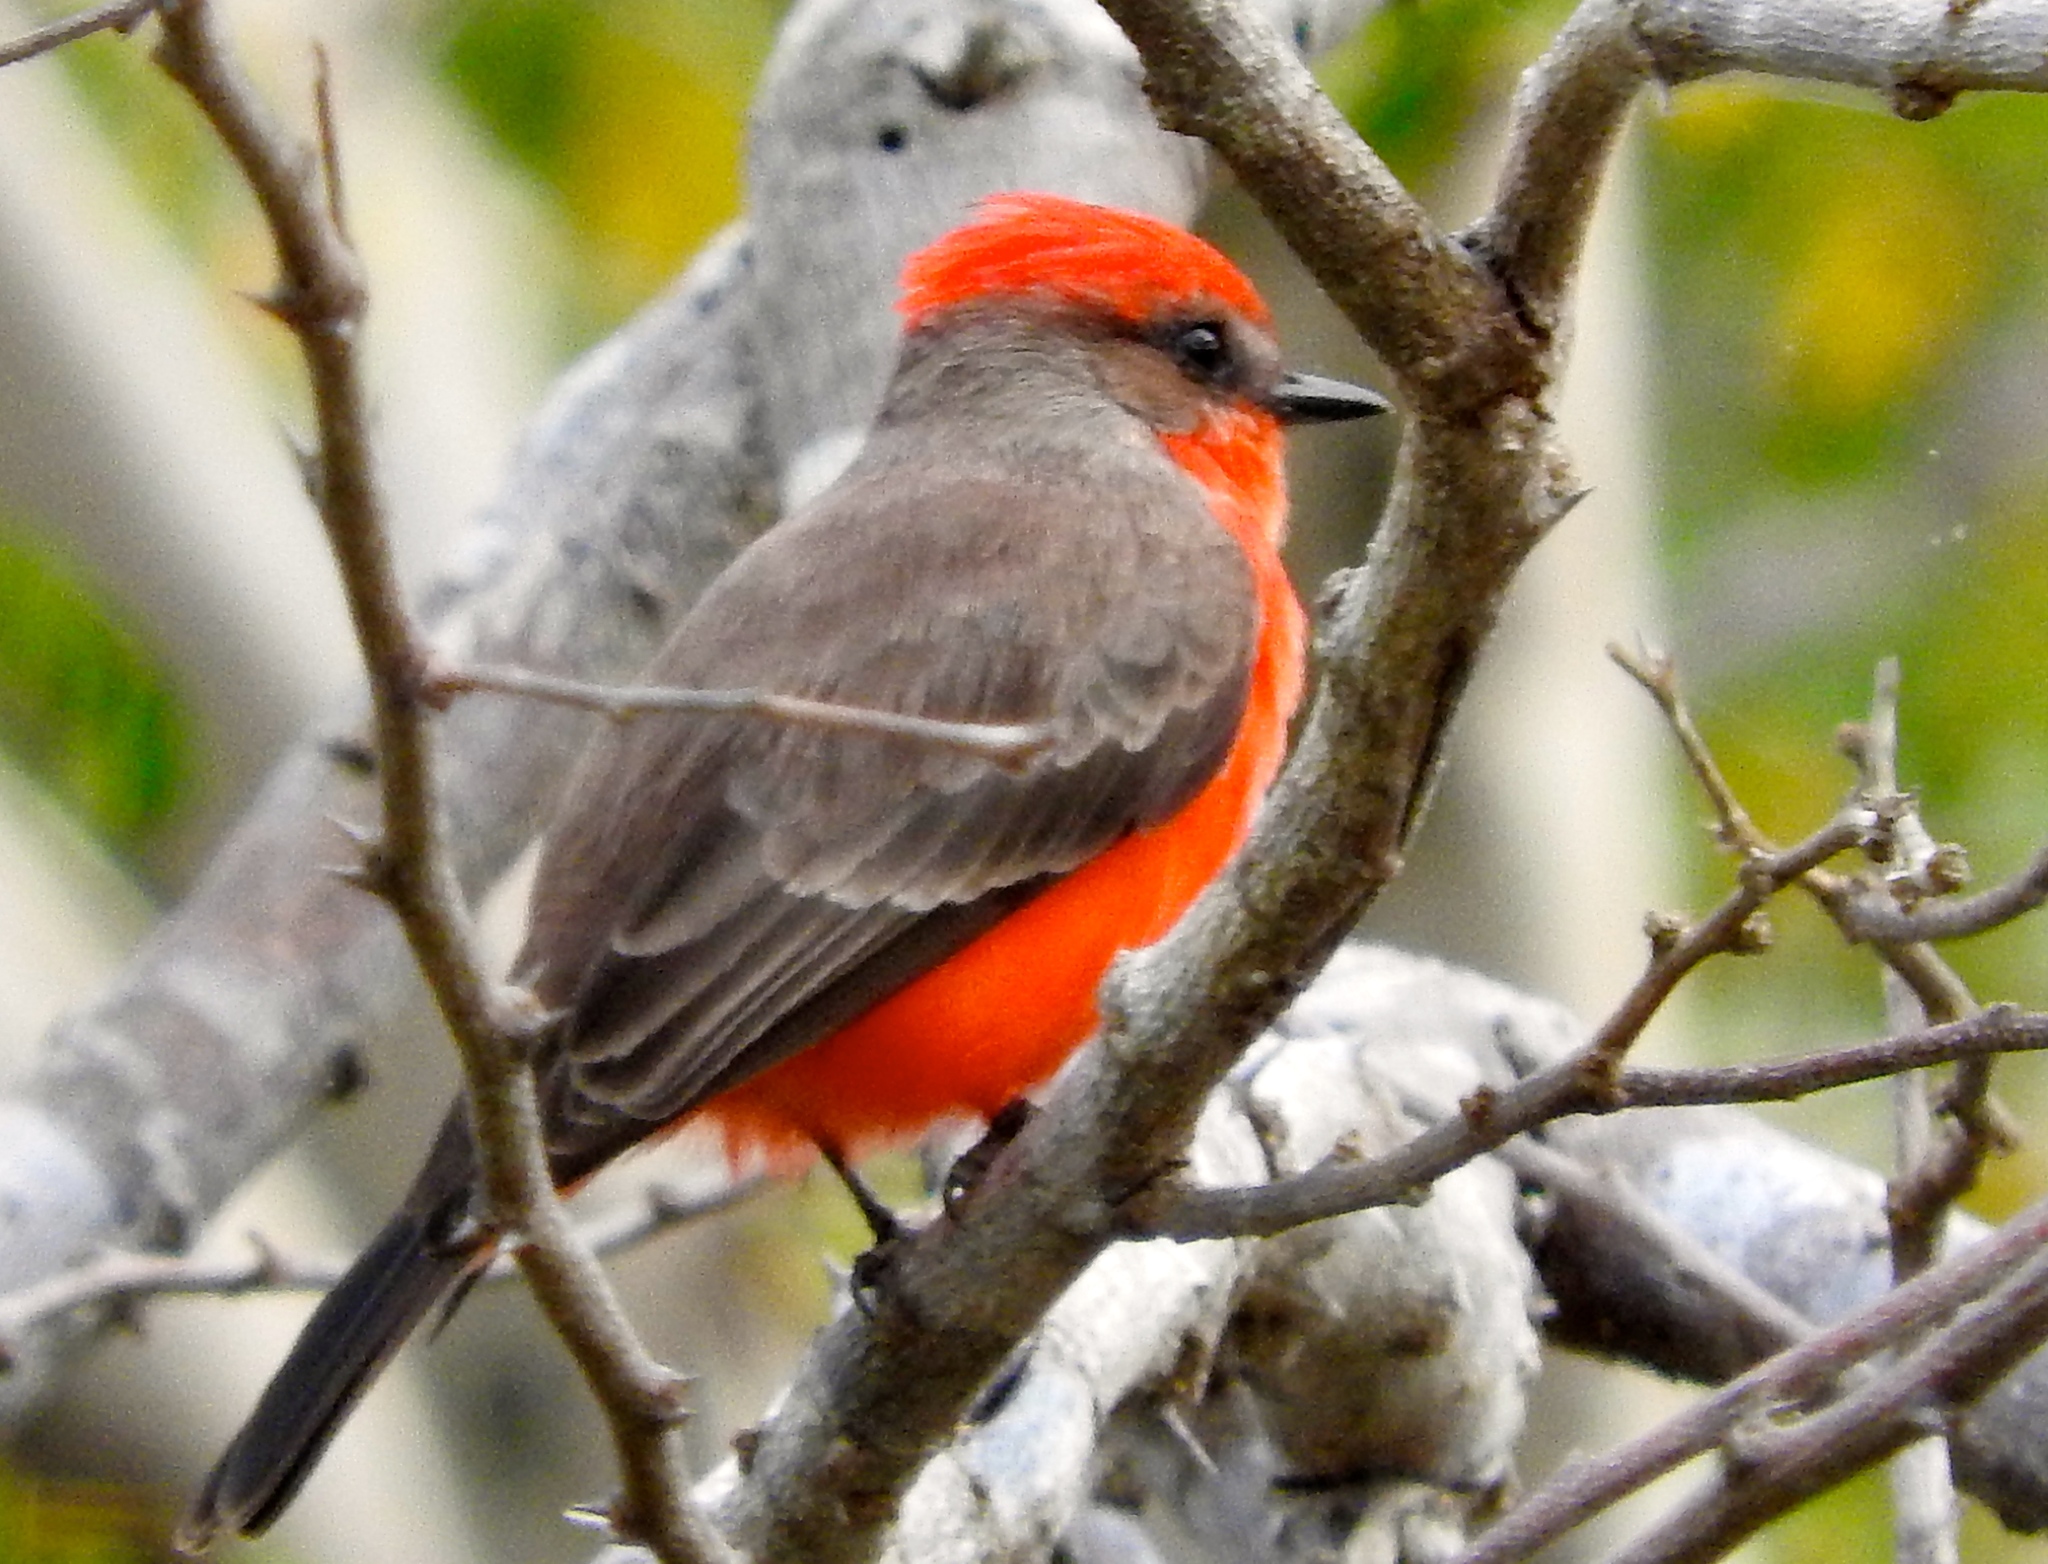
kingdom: Animalia
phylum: Chordata
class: Aves
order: Passeriformes
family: Tyrannidae
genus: Pyrocephalus
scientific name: Pyrocephalus rubinus
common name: Vermilion flycatcher
